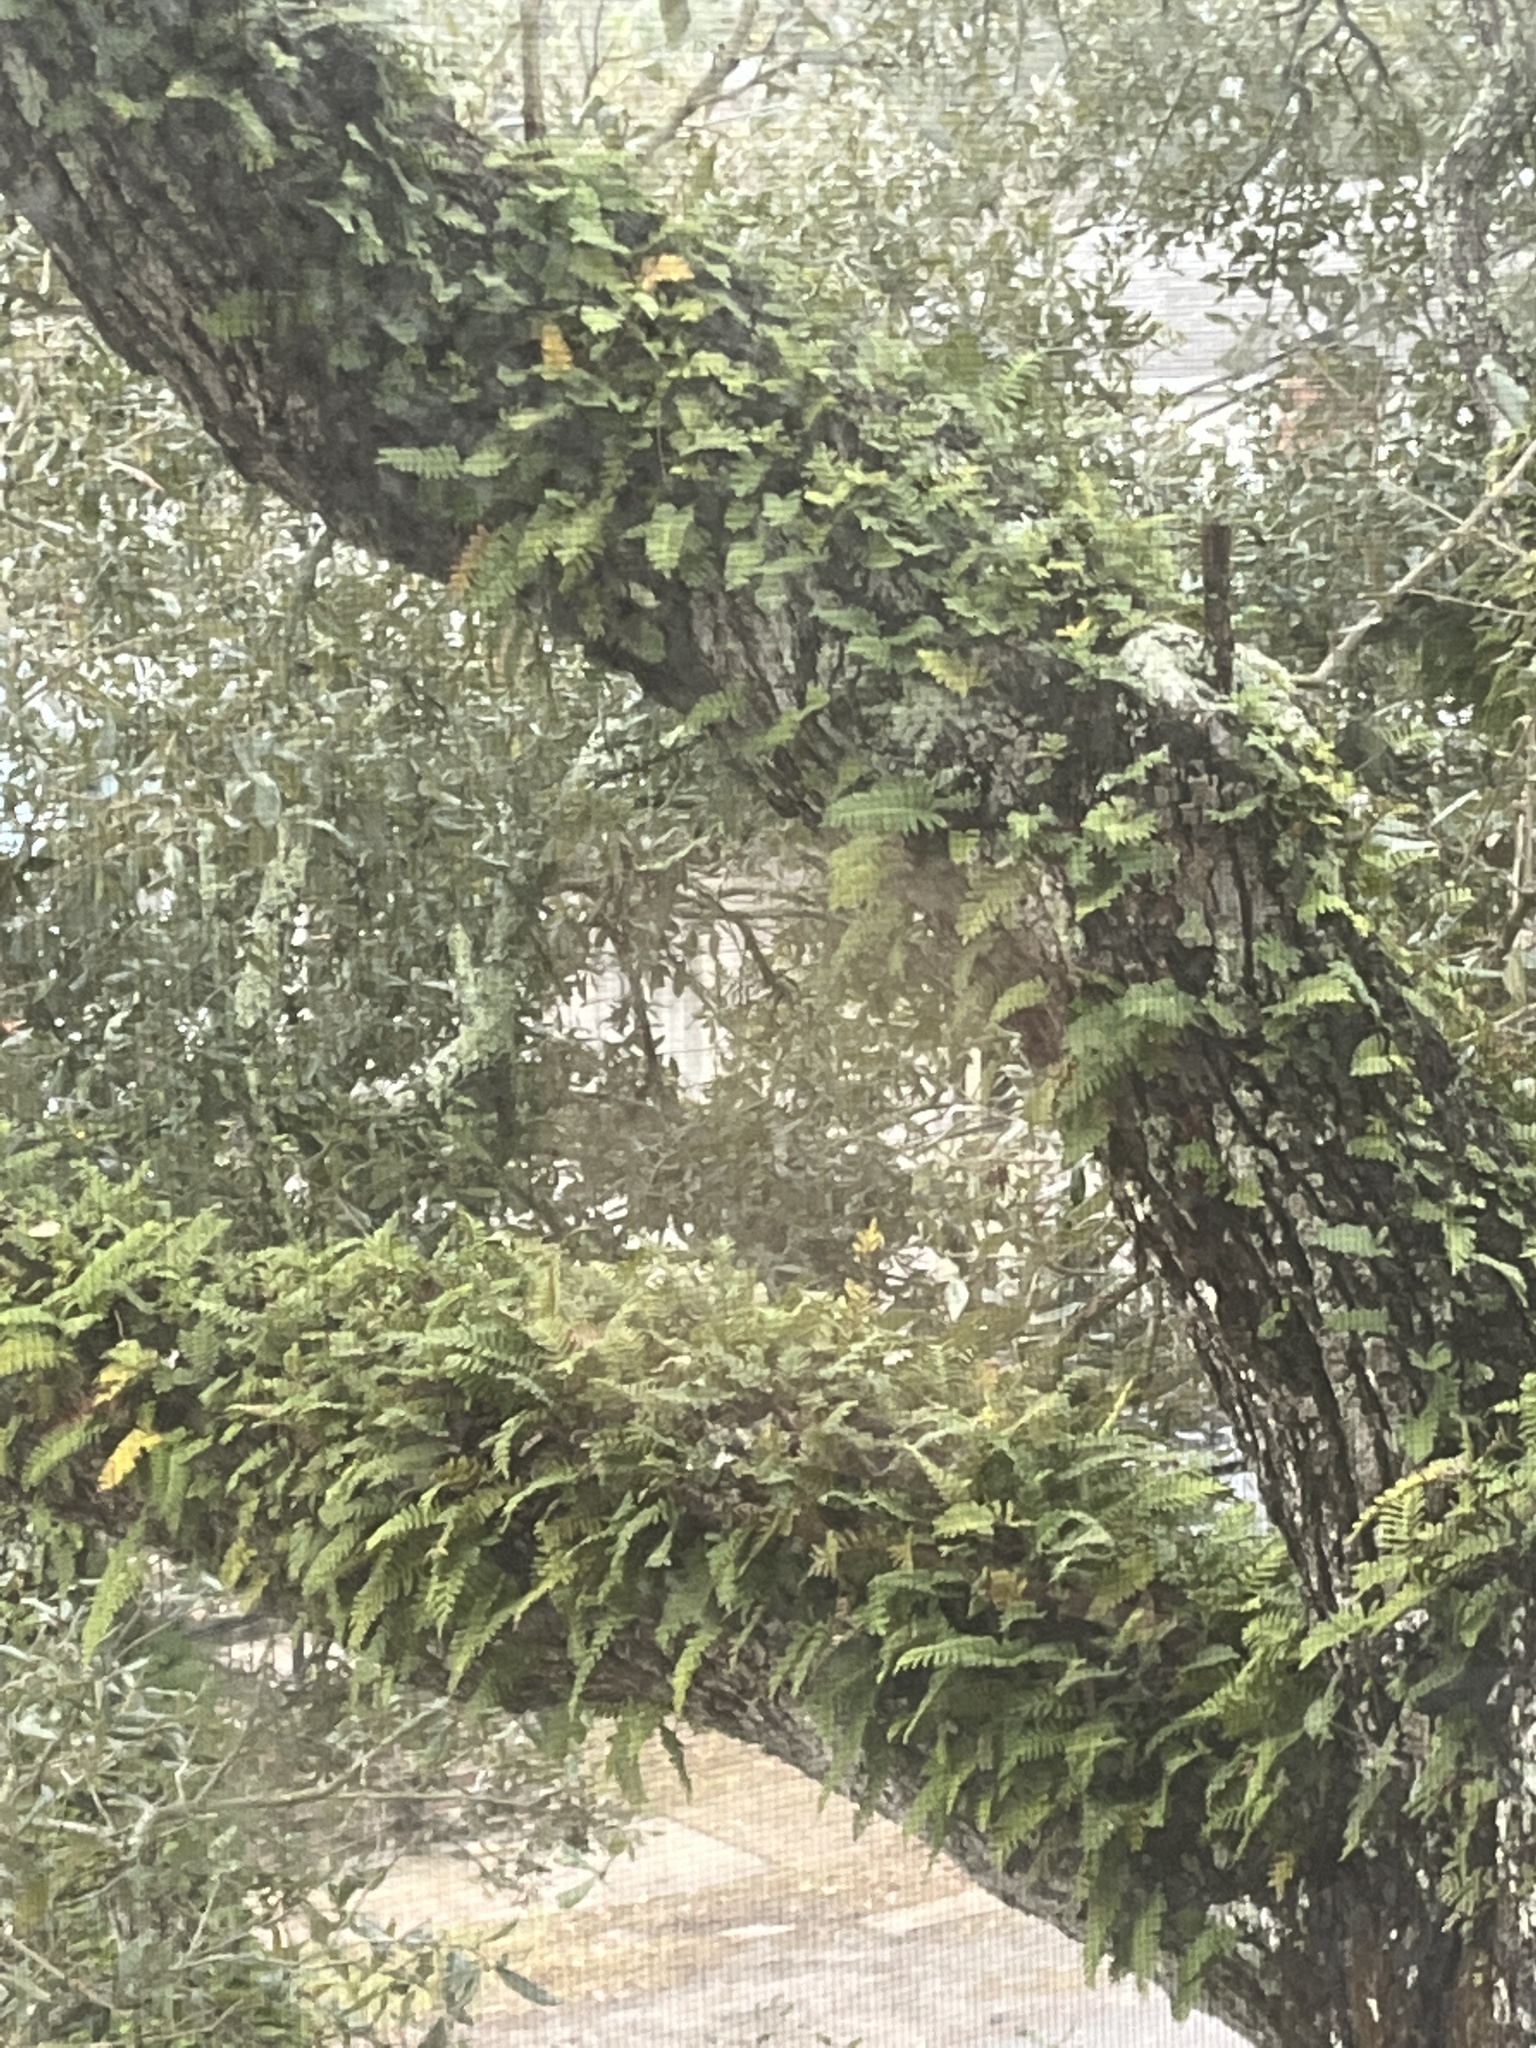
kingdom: Plantae
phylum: Tracheophyta
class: Polypodiopsida
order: Polypodiales
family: Polypodiaceae
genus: Pleopeltis
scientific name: Pleopeltis michauxiana
